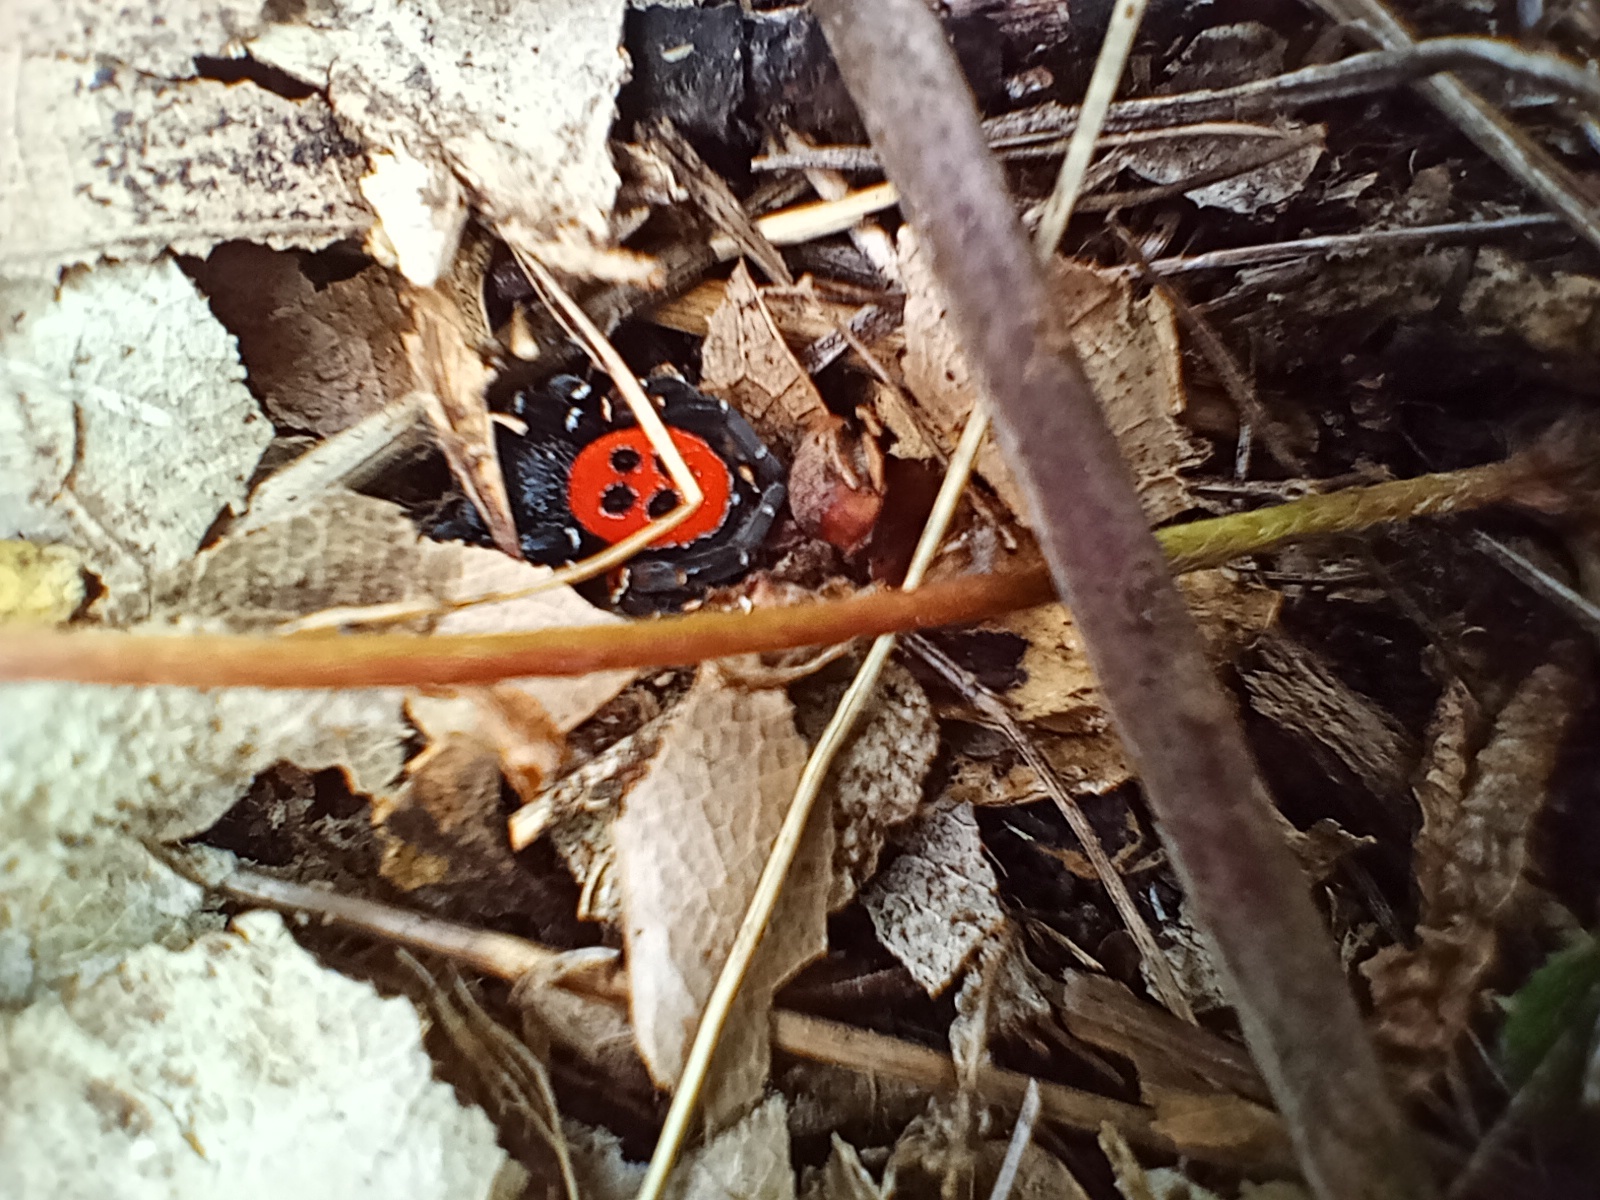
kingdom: Animalia
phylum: Arthropoda
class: Arachnida
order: Araneae
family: Eresidae
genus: Eresus
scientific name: Eresus kollari
